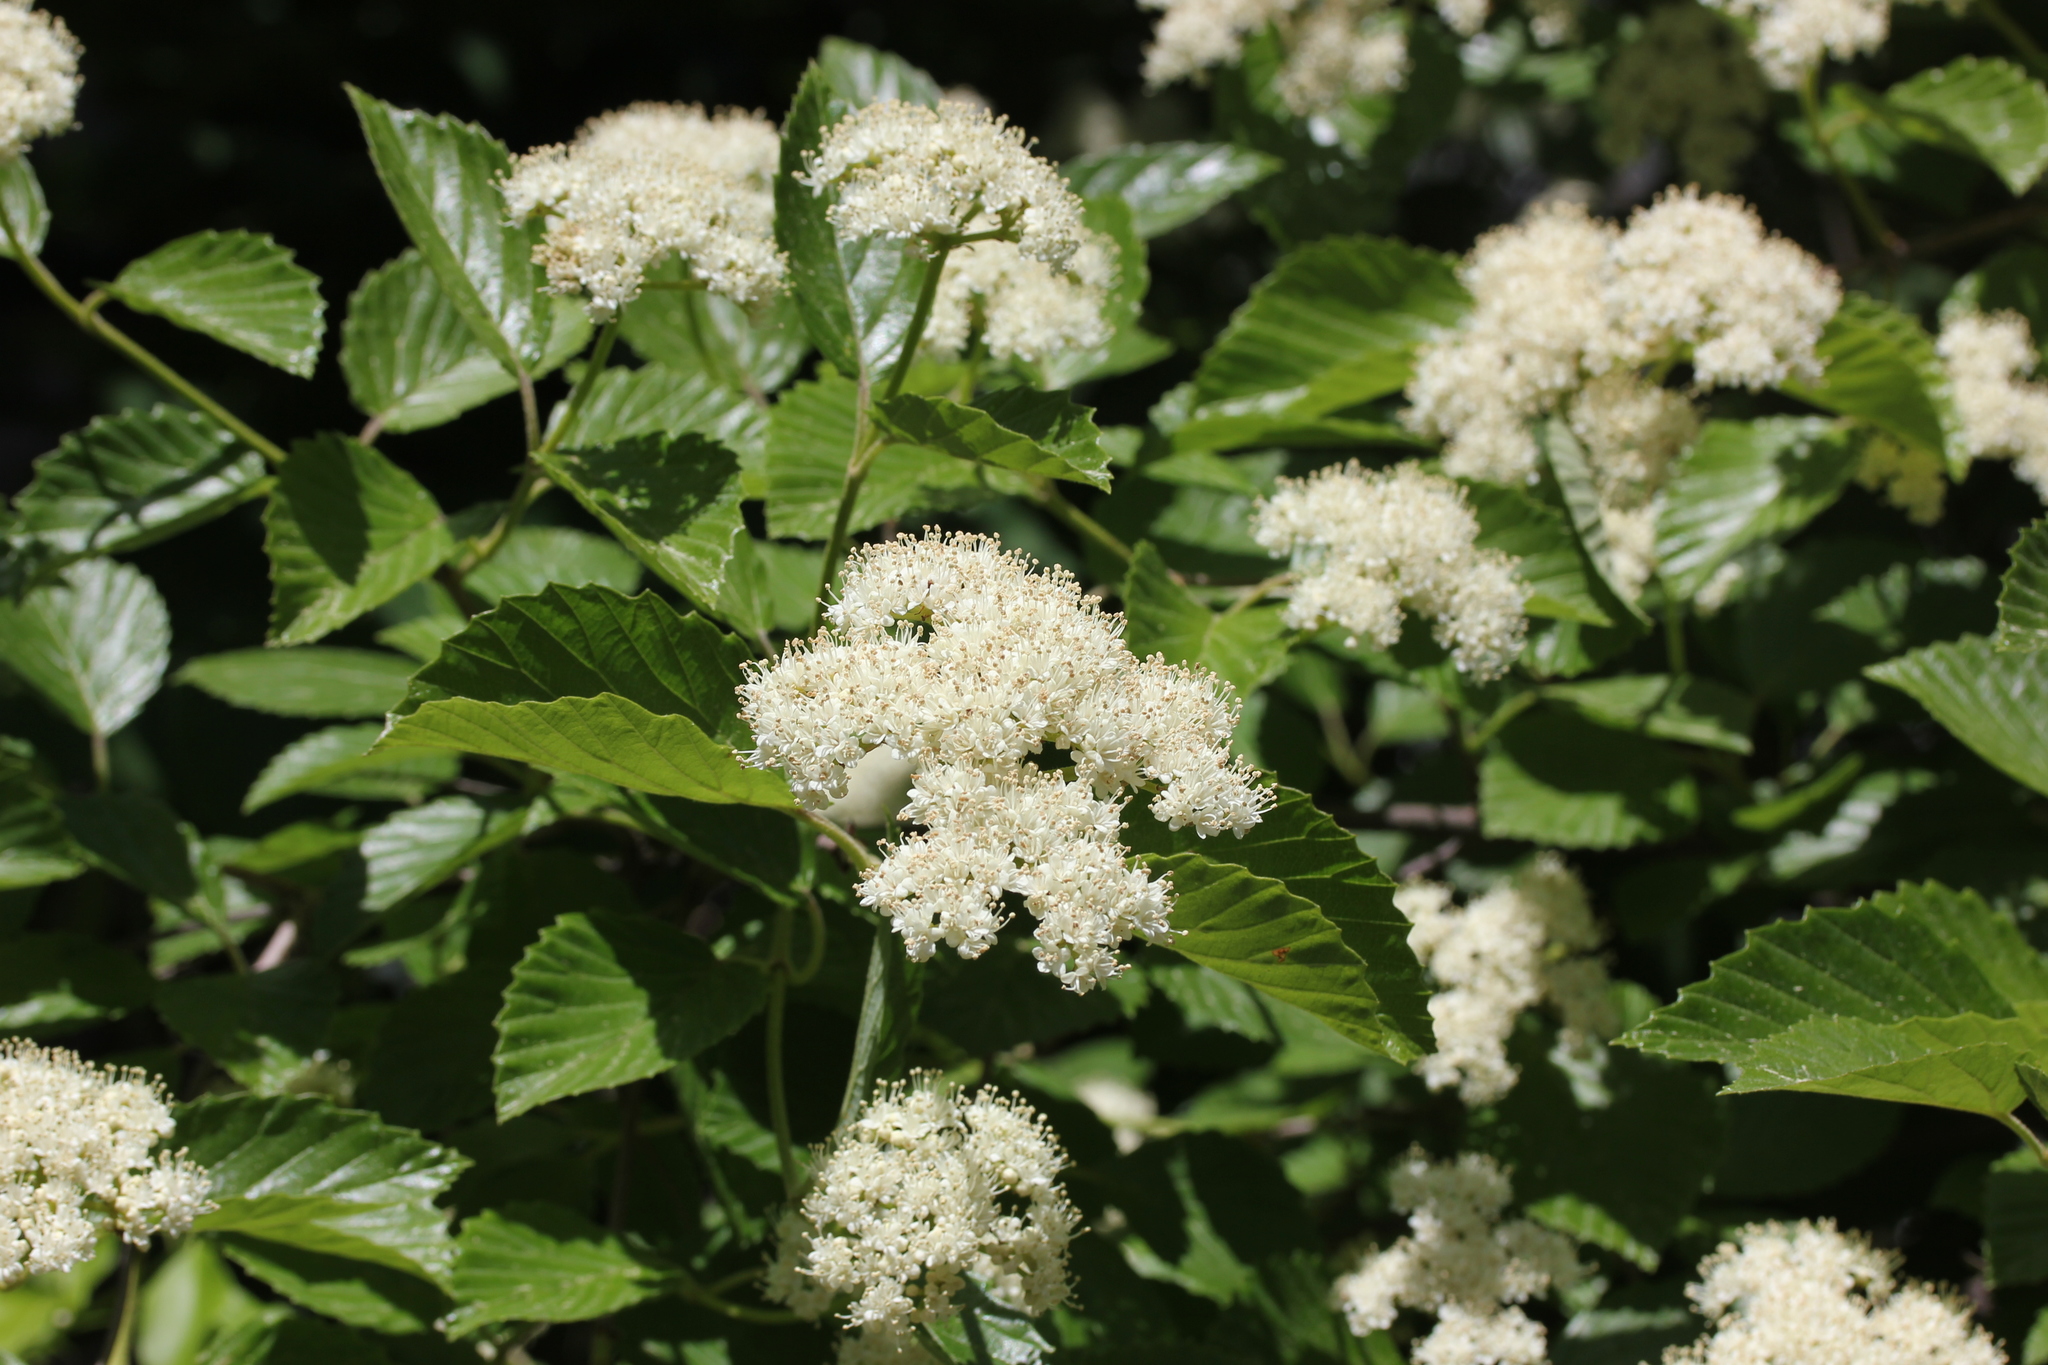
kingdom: Plantae
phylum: Tracheophyta
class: Magnoliopsida
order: Dipsacales
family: Viburnaceae
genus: Viburnum
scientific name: Viburnum dentatum
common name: Arrow-wood
